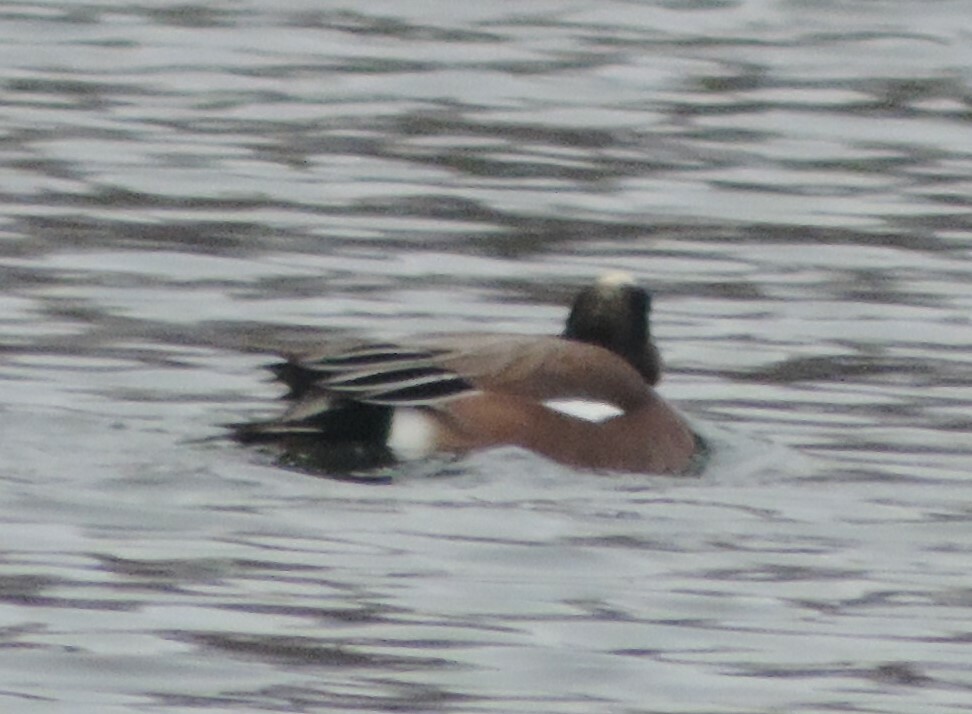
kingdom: Animalia
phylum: Chordata
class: Aves
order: Anseriformes
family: Anatidae
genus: Mareca
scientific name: Mareca americana
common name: American wigeon
